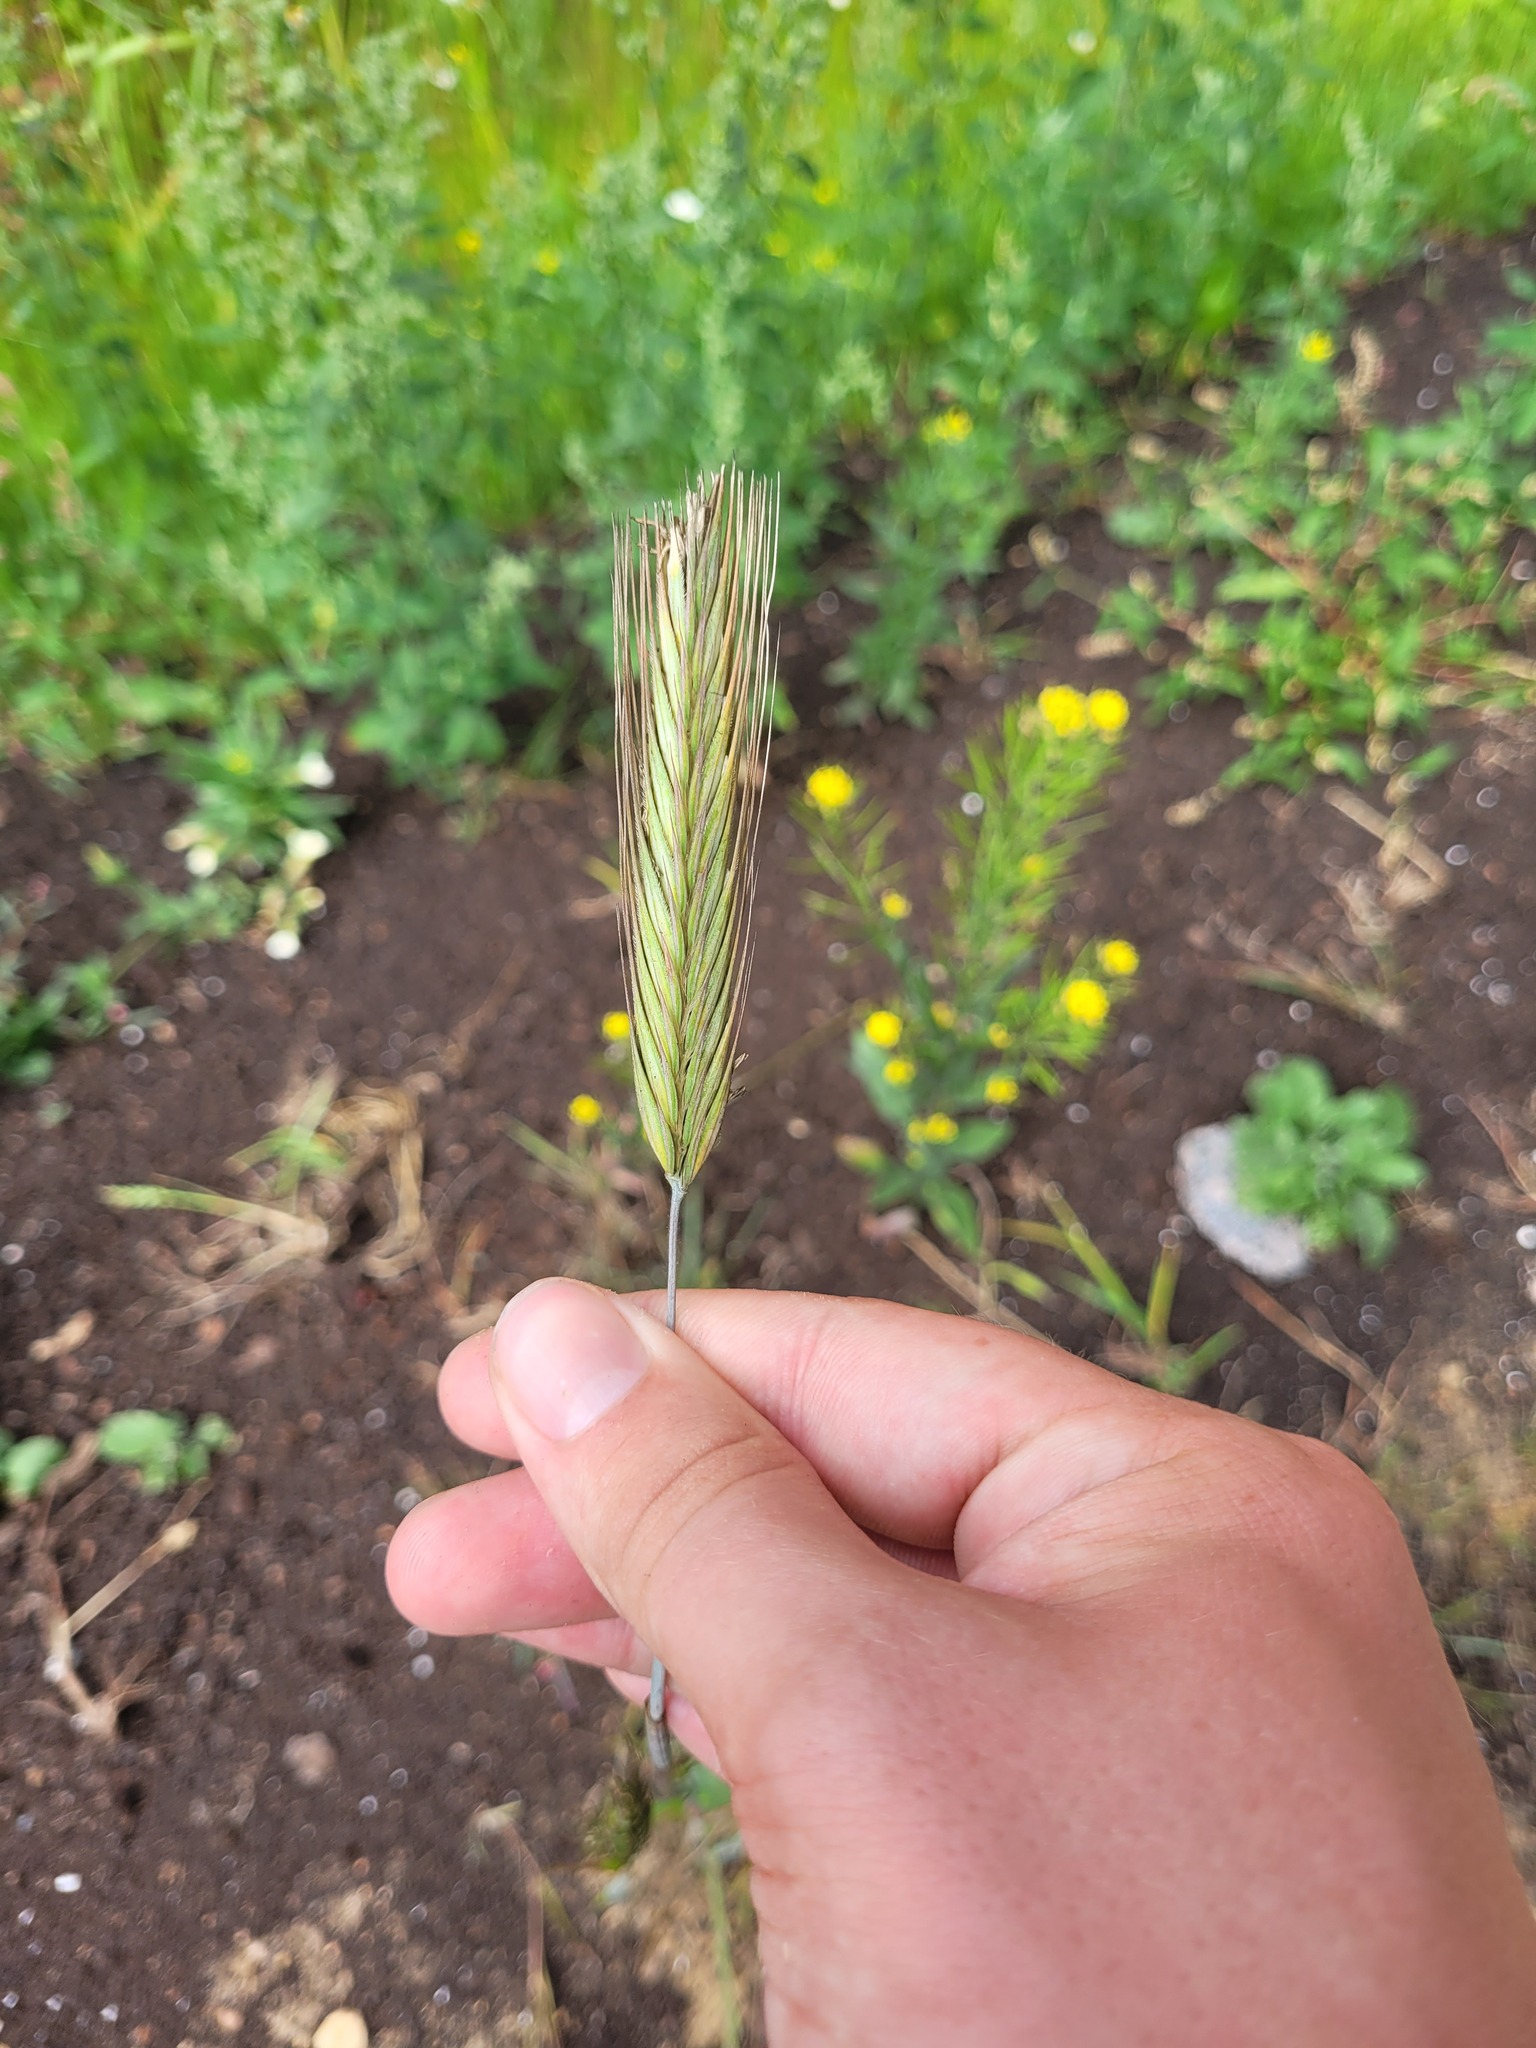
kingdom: Plantae
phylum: Tracheophyta
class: Liliopsida
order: Poales
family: Poaceae
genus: Secale
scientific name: Secale cereale
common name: Rye
